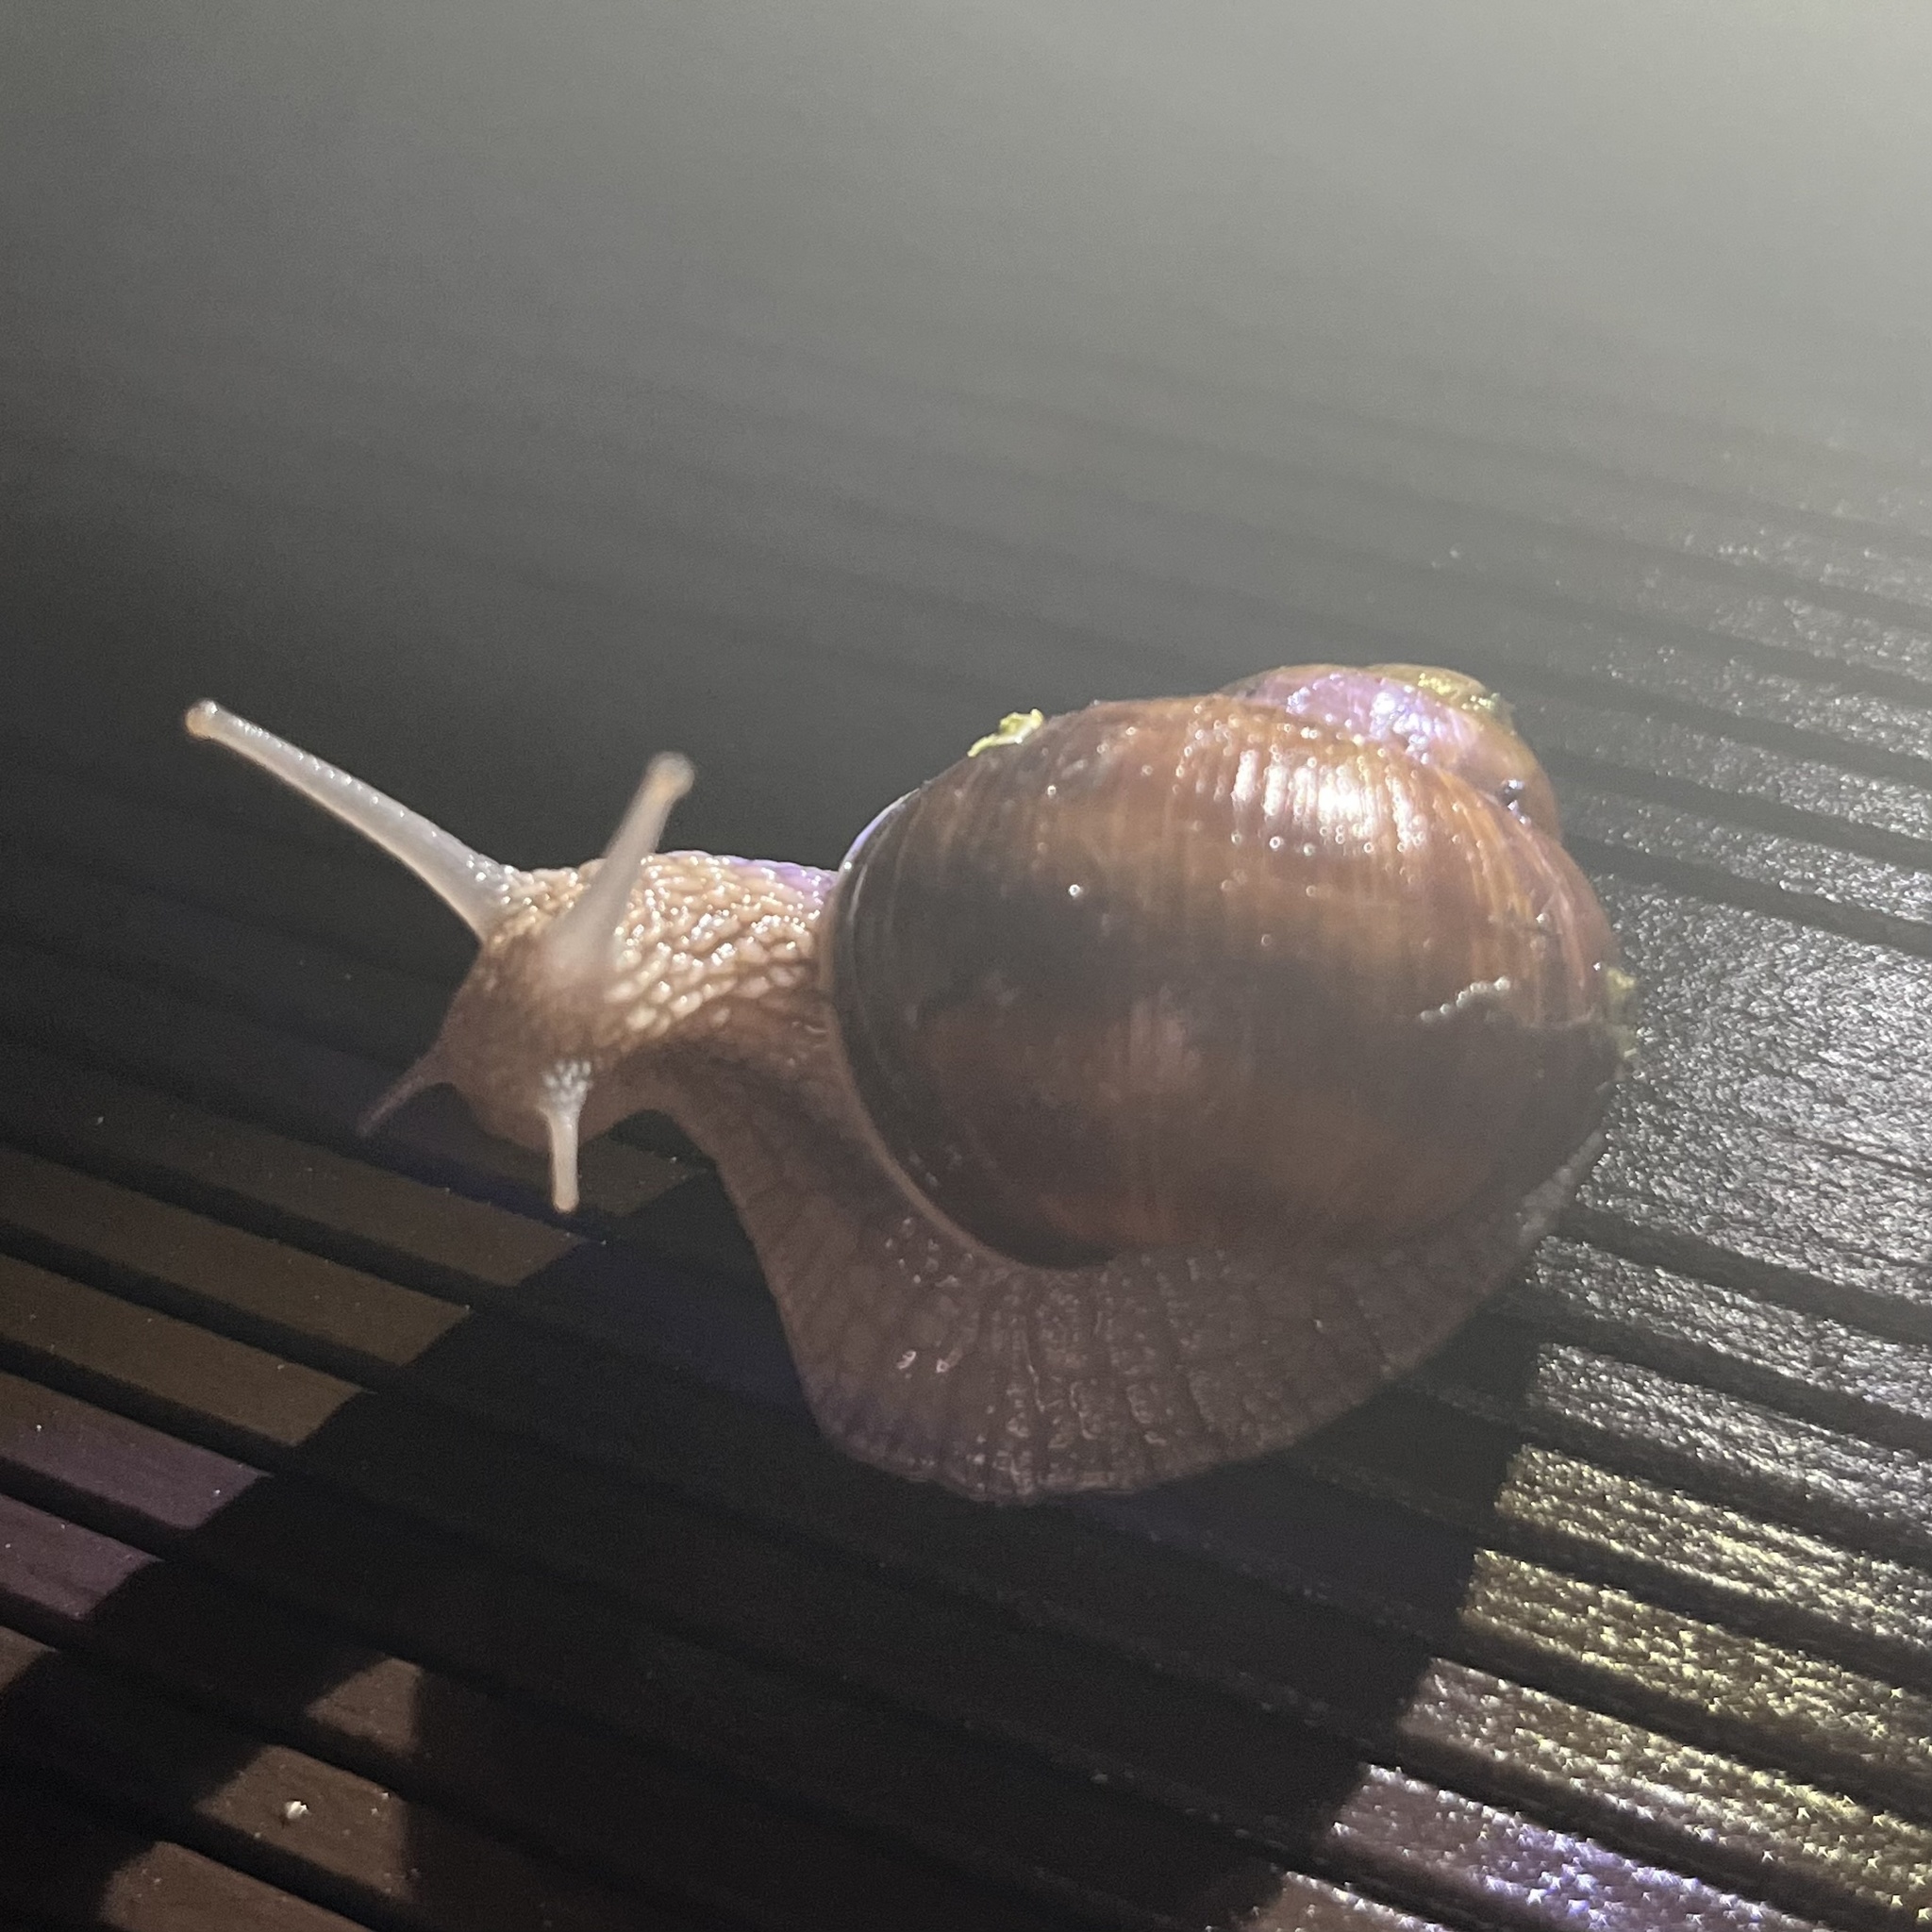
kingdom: Animalia
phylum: Mollusca
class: Gastropoda
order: Stylommatophora
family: Helicidae
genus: Helix
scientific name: Helix pomatia
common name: Roman snail
